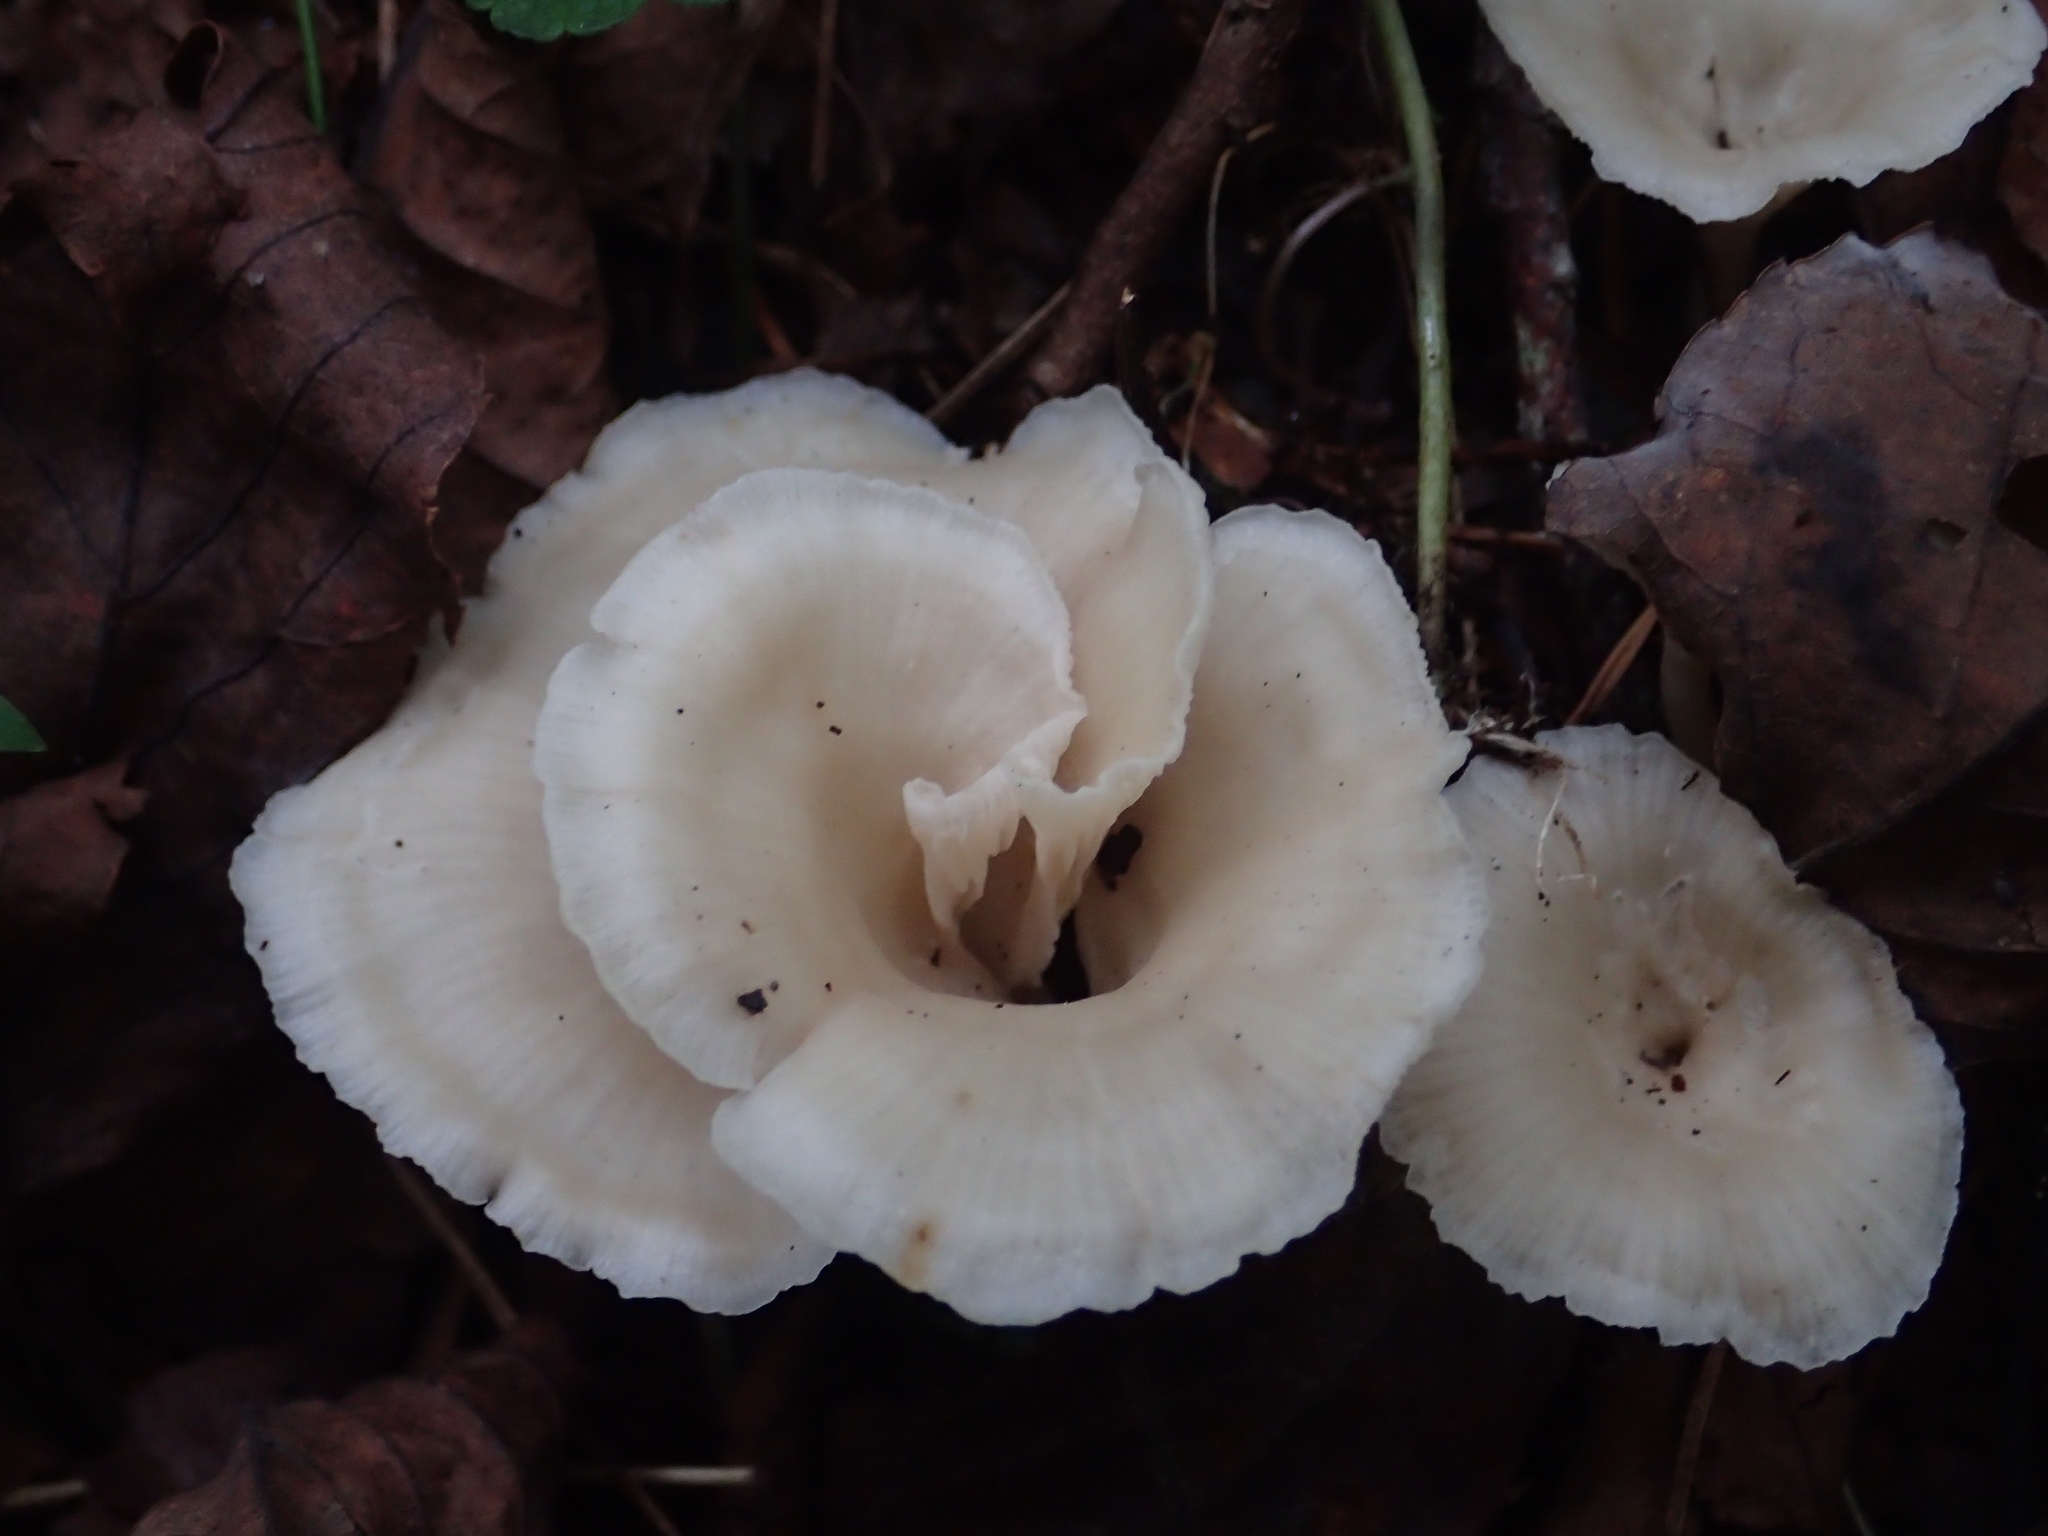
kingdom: Fungi
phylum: Basidiomycota
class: Agaricomycetes
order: Polyporales
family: Polyporaceae
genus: Lentinus
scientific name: Lentinus sajor-caju
